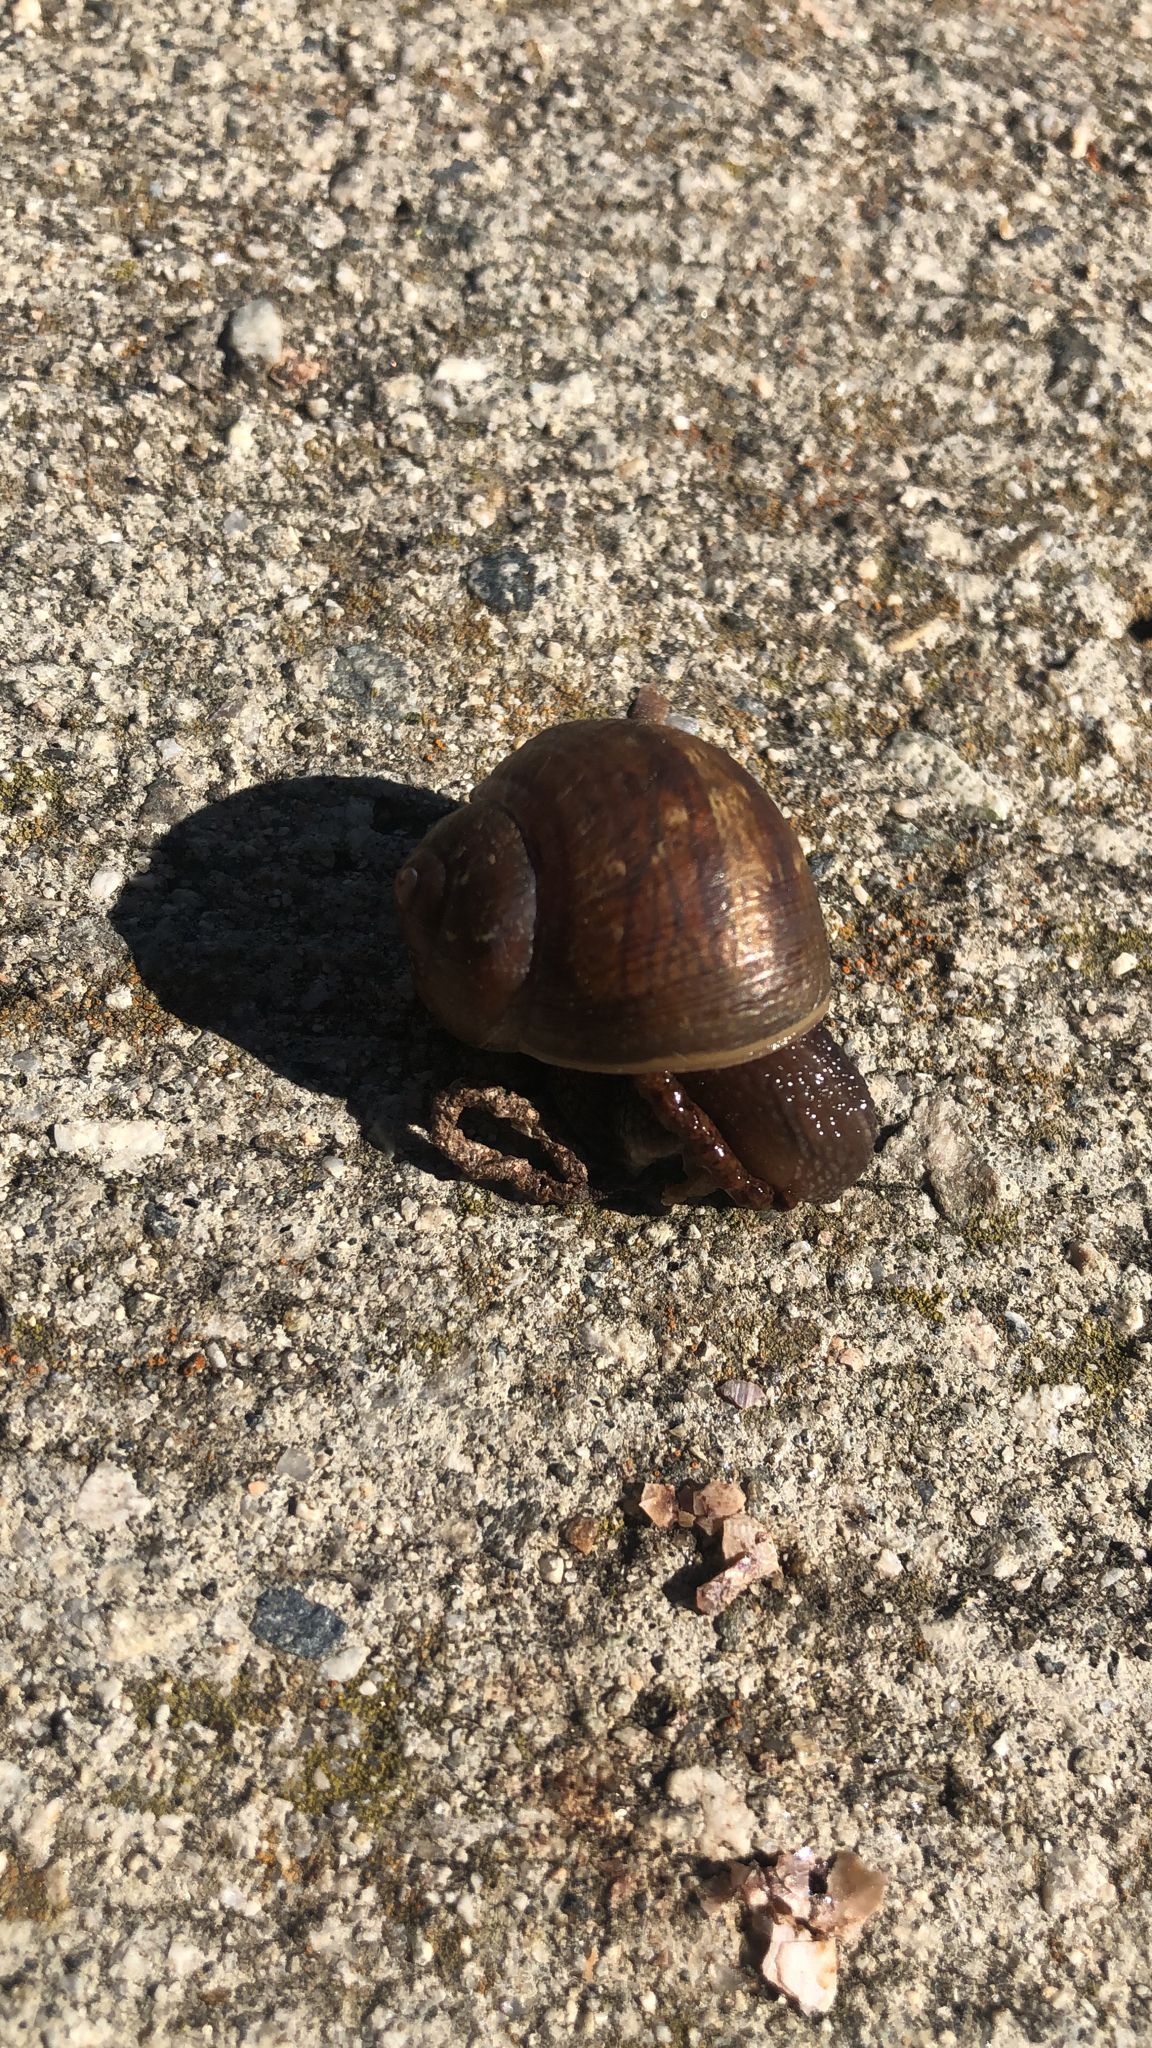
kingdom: Animalia
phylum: Mollusca
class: Gastropoda
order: Stylommatophora
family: Helicidae
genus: Cornu
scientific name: Cornu aspersum
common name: Brown garden snail
